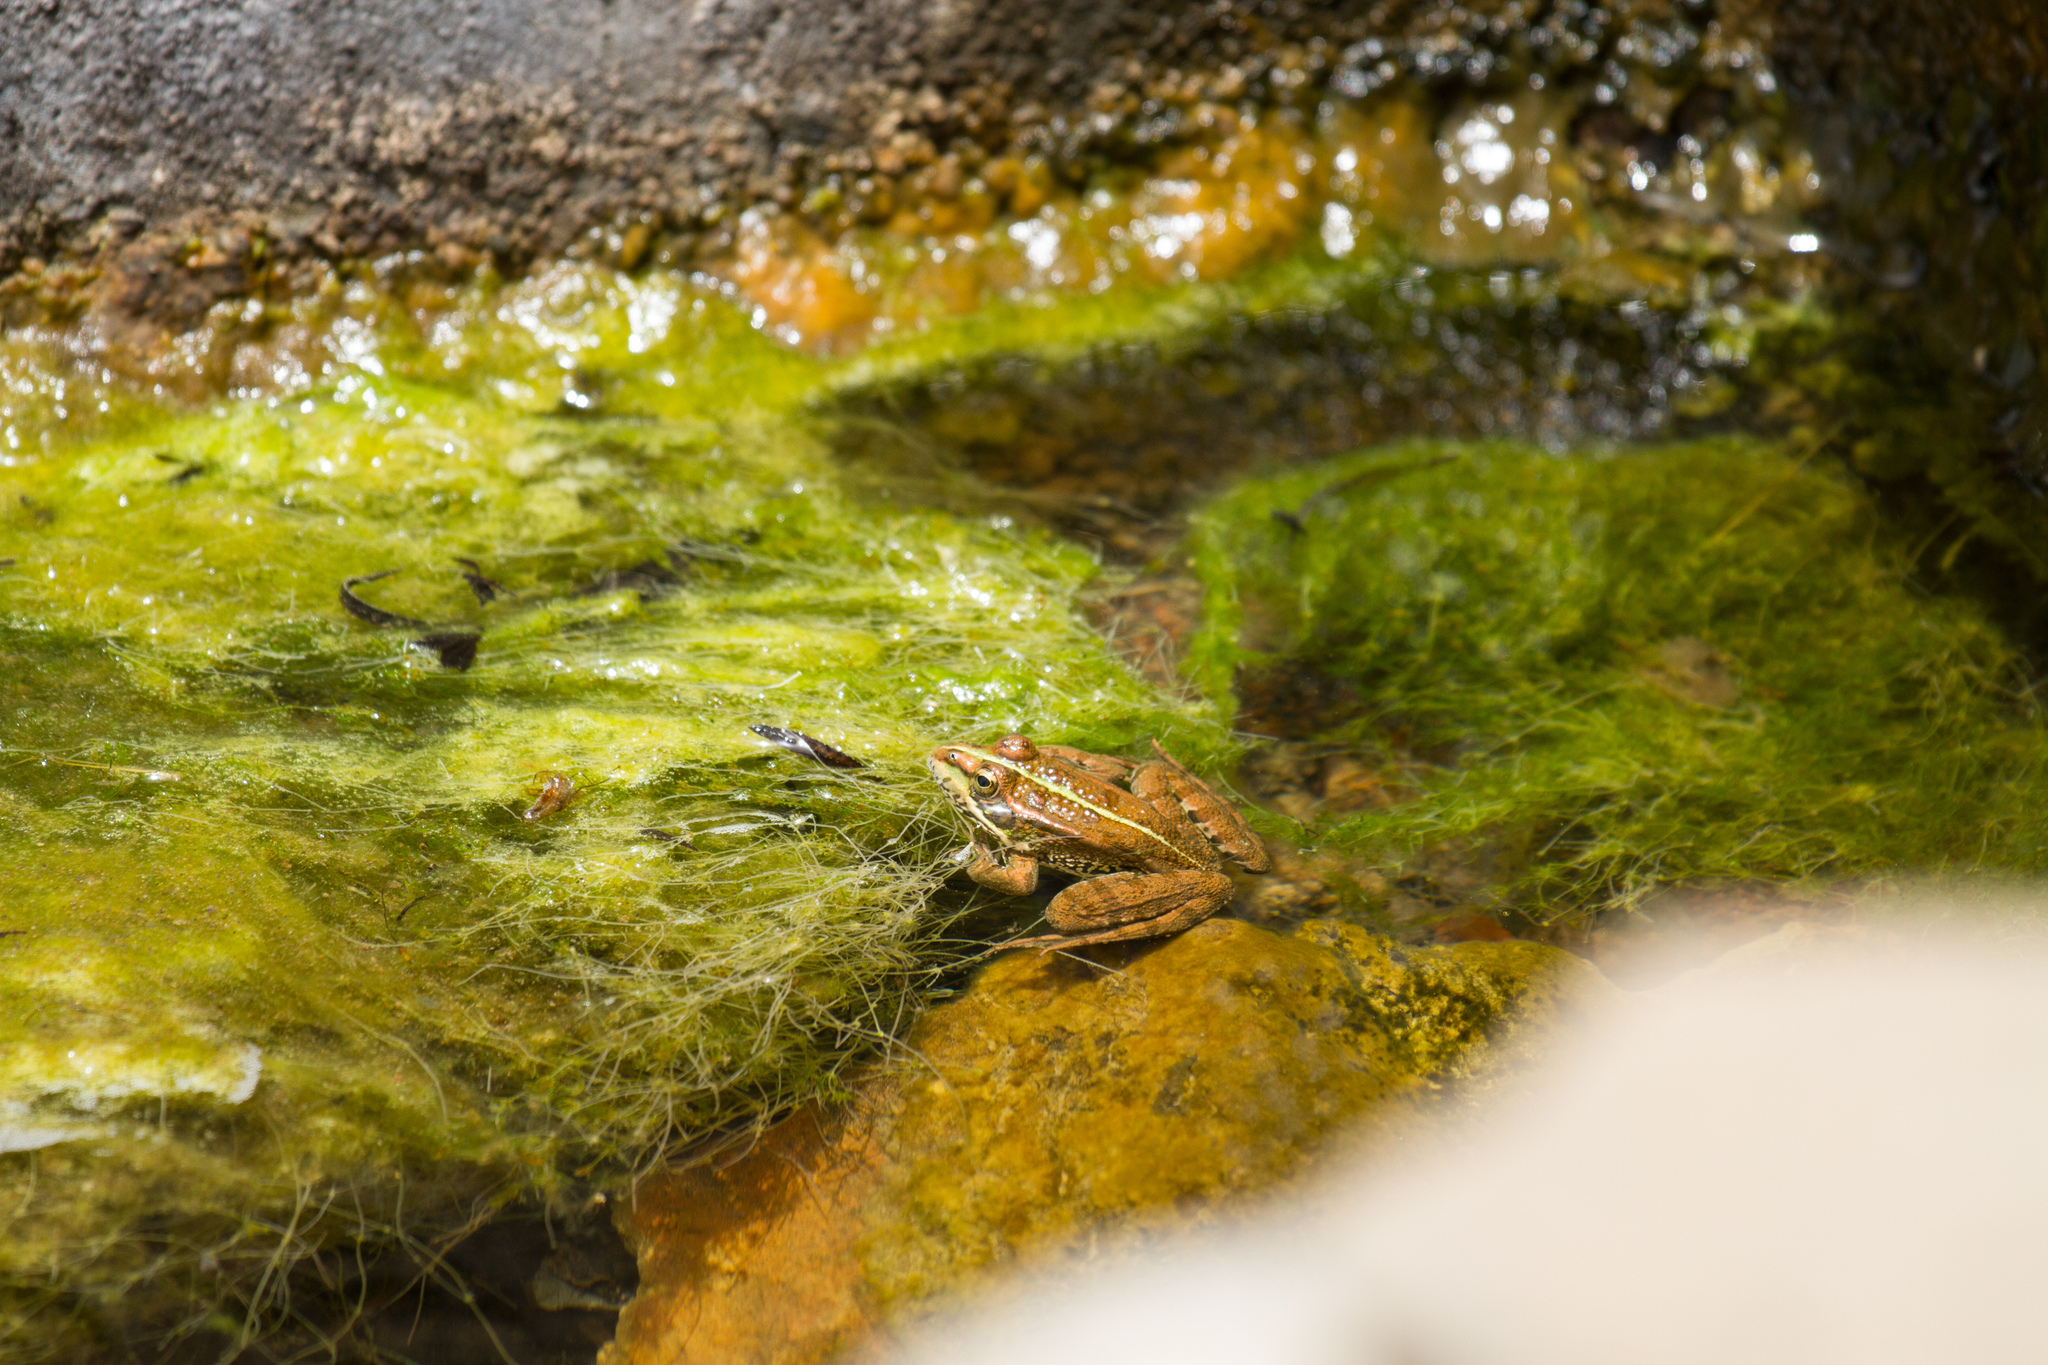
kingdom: Animalia
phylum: Chordata
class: Amphibia
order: Anura
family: Ranidae
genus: Pelophylax
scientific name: Pelophylax perezi
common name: Perez's frog
